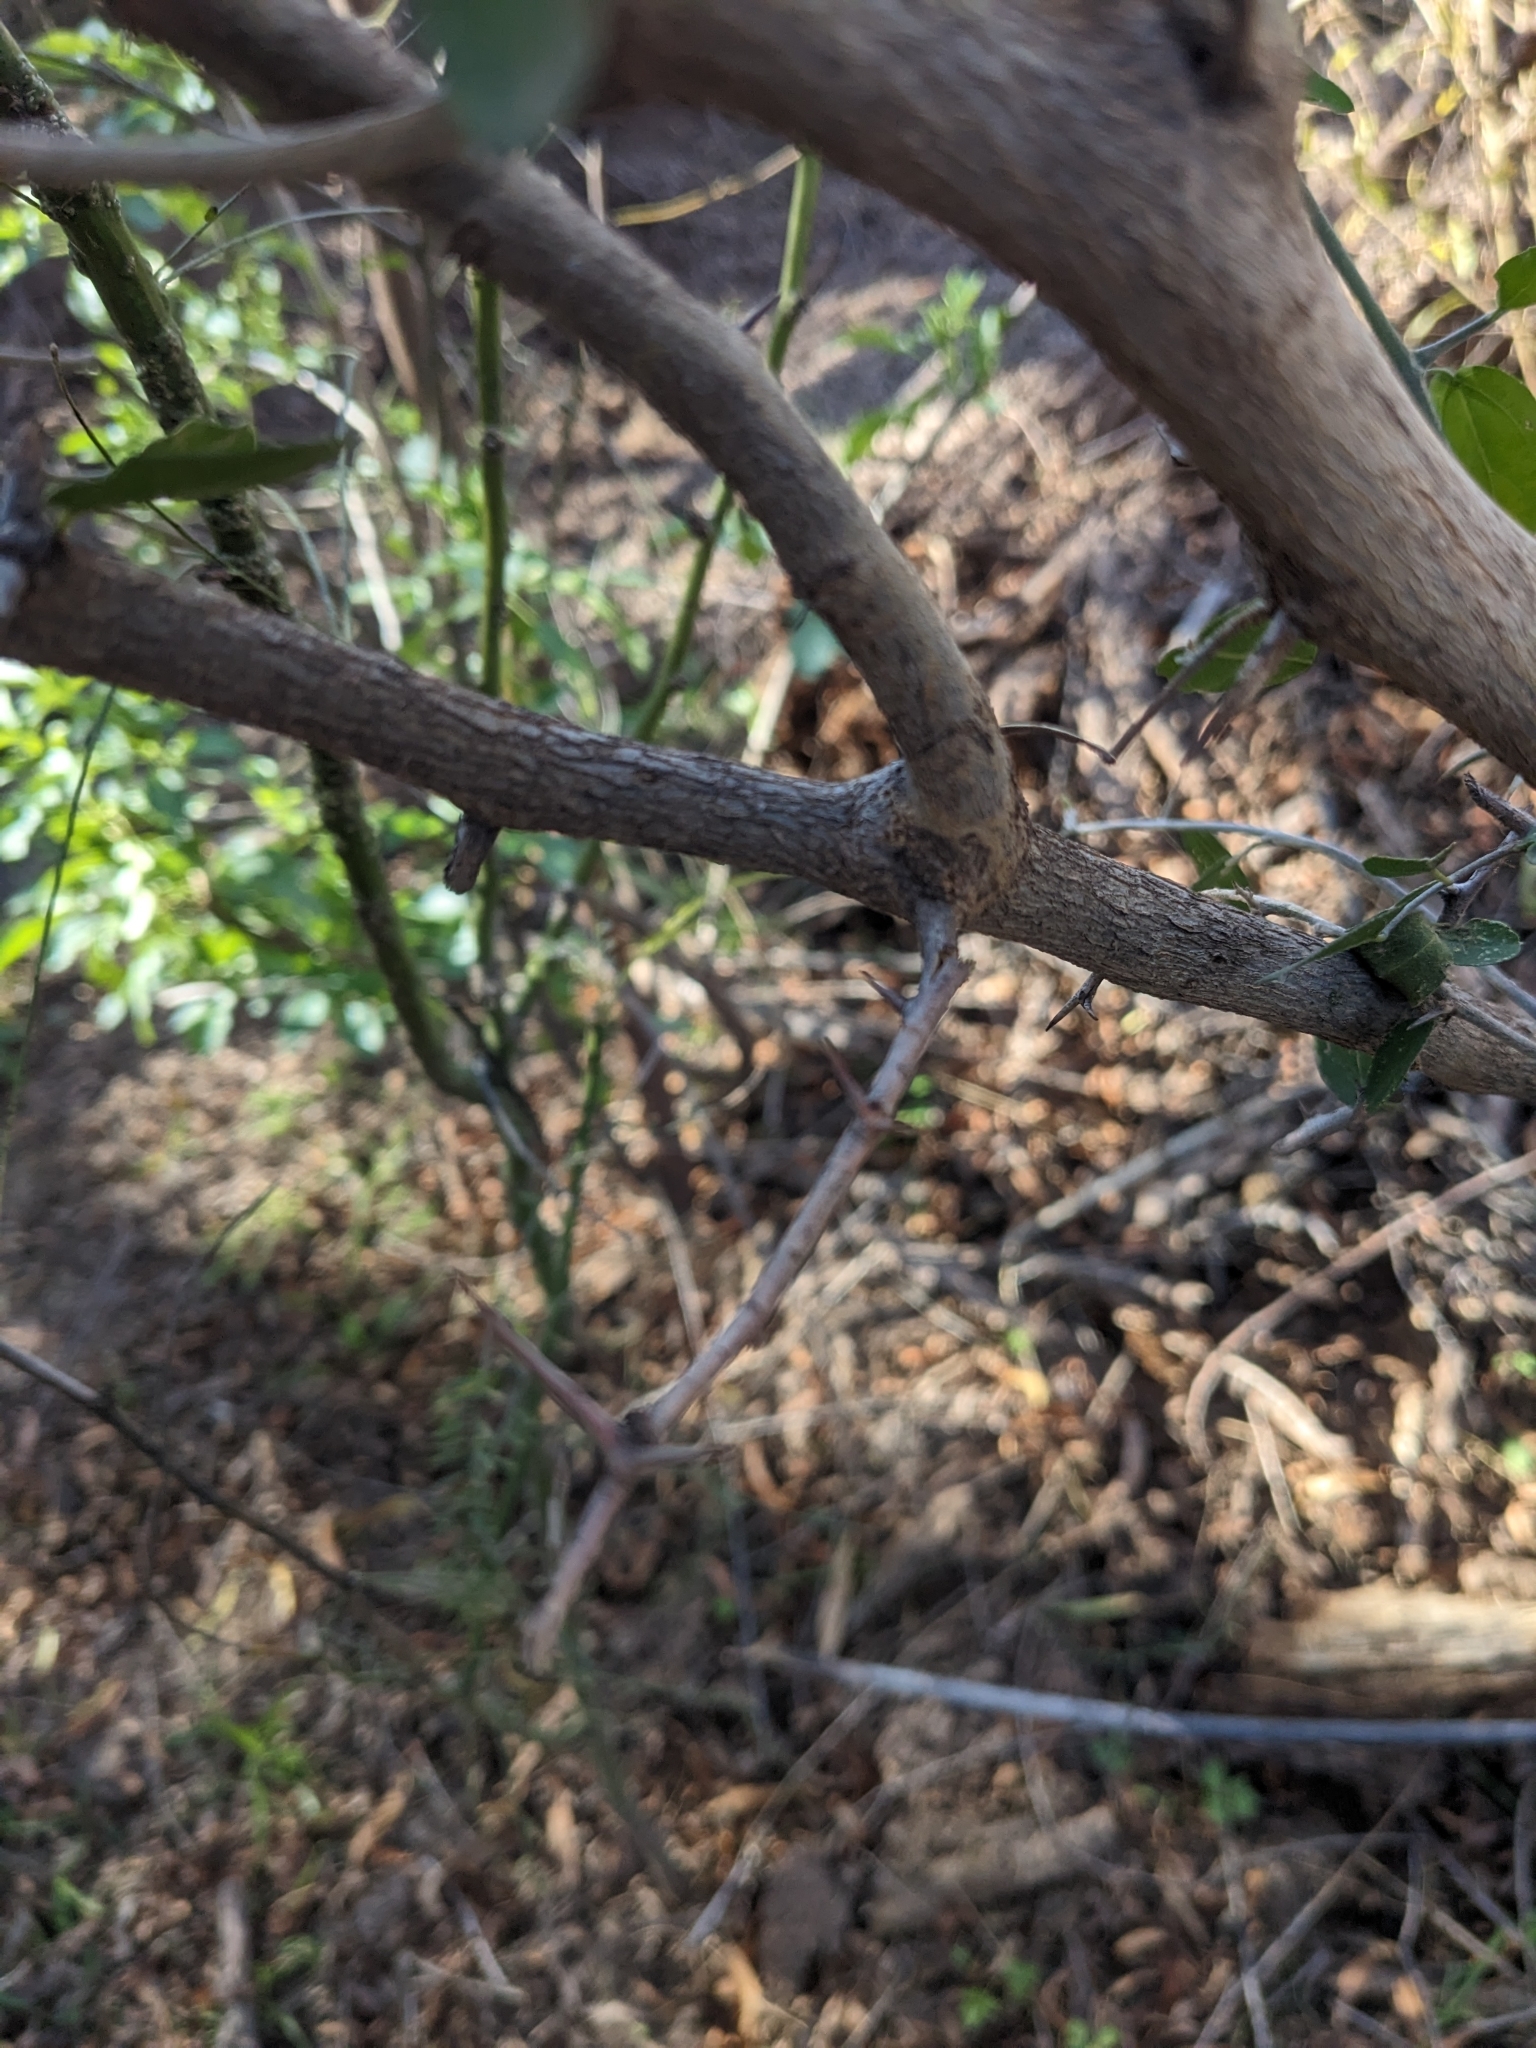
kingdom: Plantae
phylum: Tracheophyta
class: Magnoliopsida
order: Rosales
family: Cannabaceae
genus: Celtis
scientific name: Celtis pallida
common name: Desert hackberry
